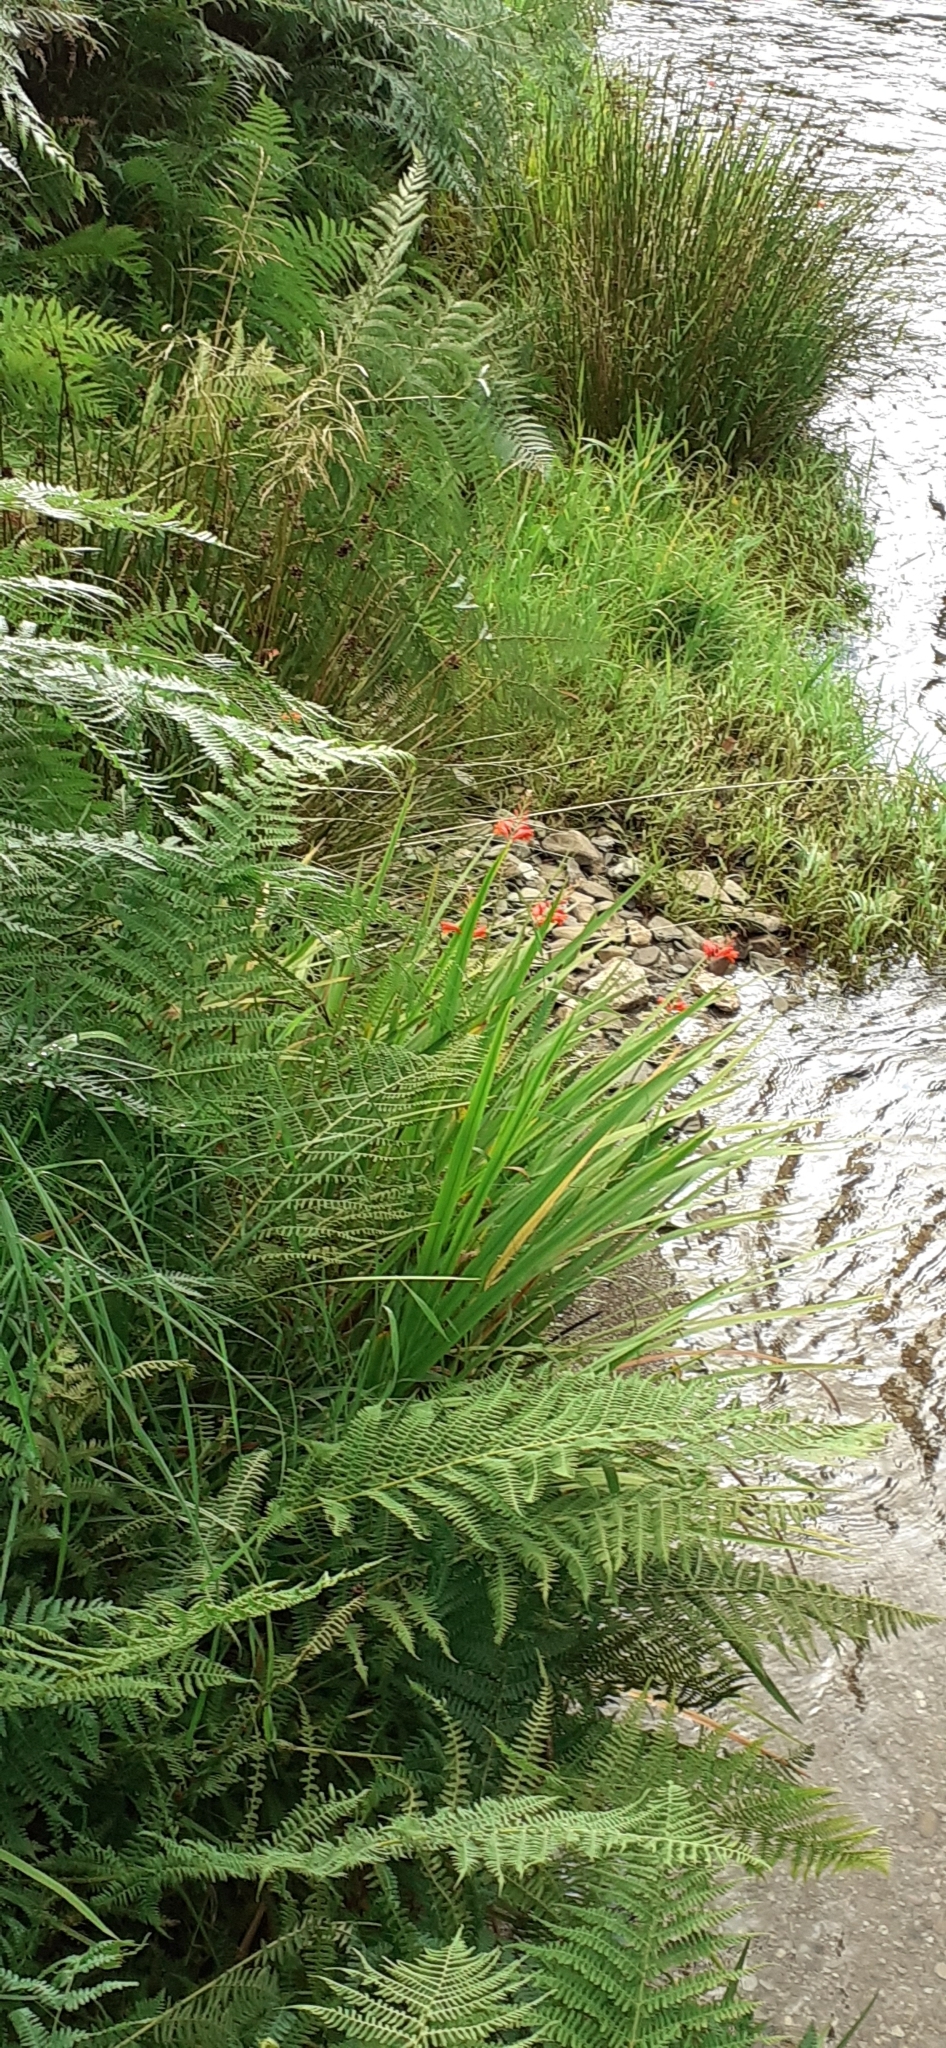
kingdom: Plantae
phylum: Tracheophyta
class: Liliopsida
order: Asparagales
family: Iridaceae
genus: Crocosmia
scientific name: Crocosmia crocosmiiflora
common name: Montbretia
